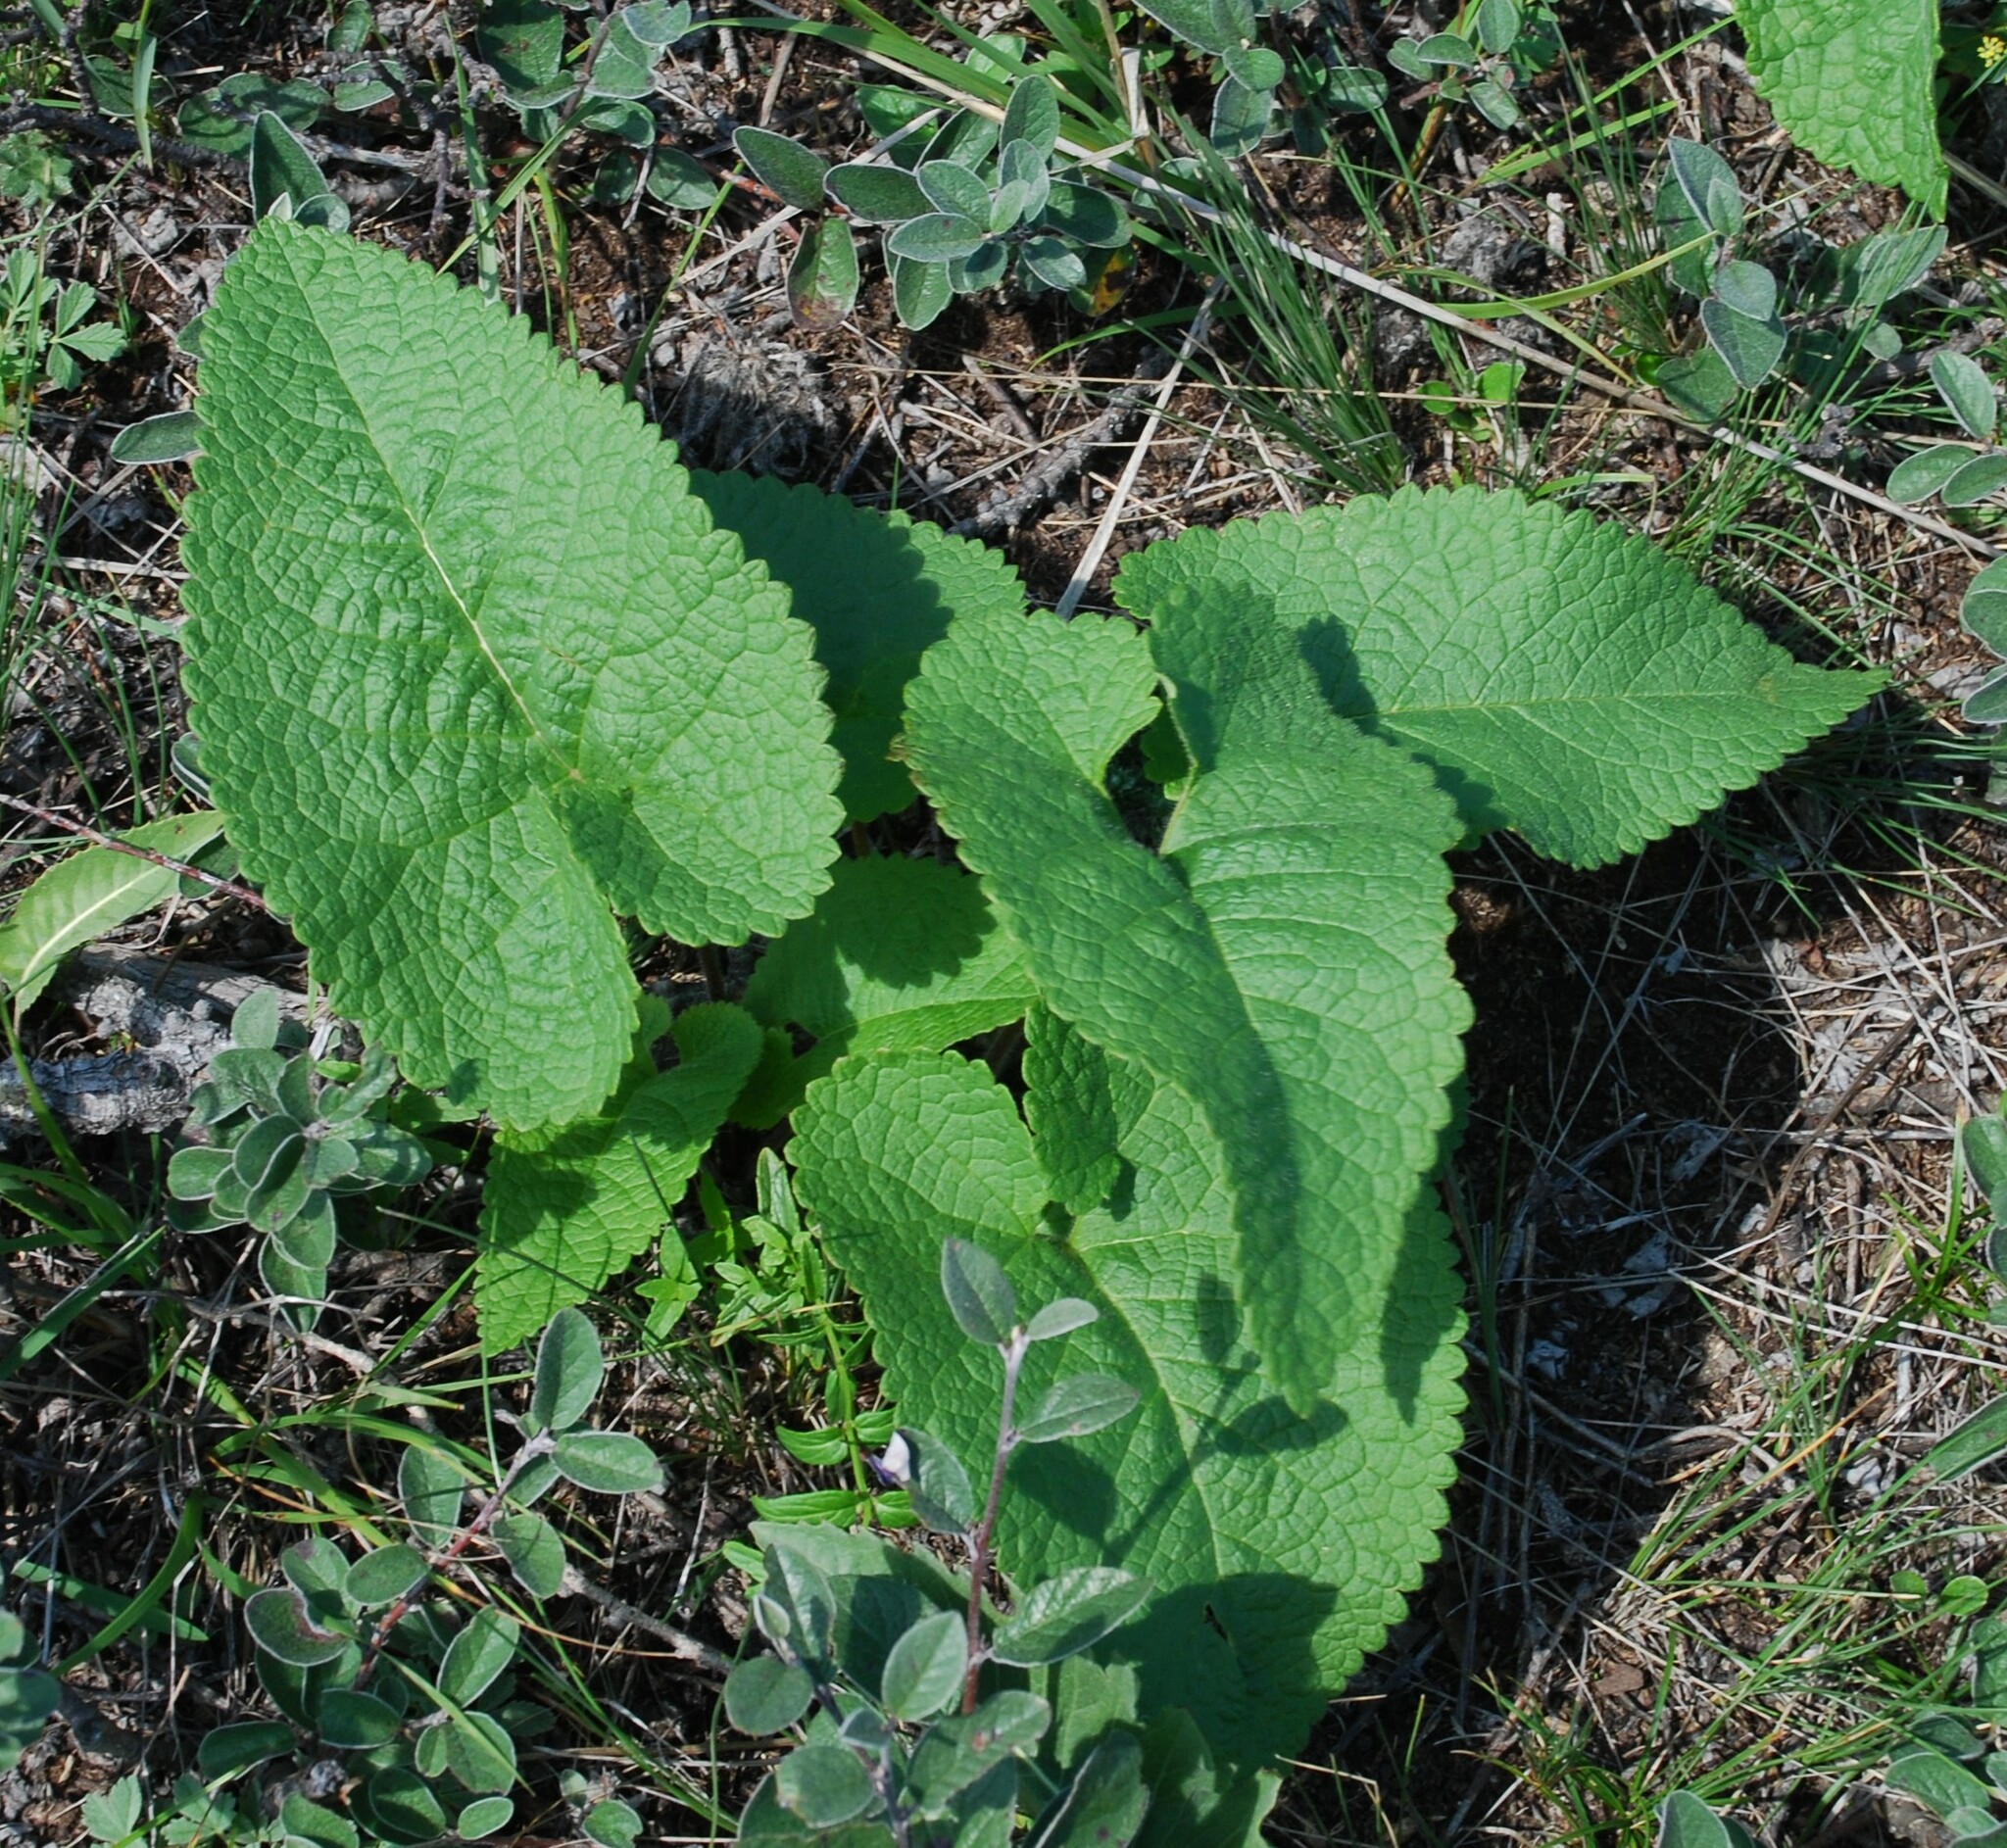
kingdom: Plantae
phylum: Tracheophyta
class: Magnoliopsida
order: Lamiales
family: Lamiaceae
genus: Phlomoides
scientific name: Phlomoides tuberosa
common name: Tuberous jerusalem sage
